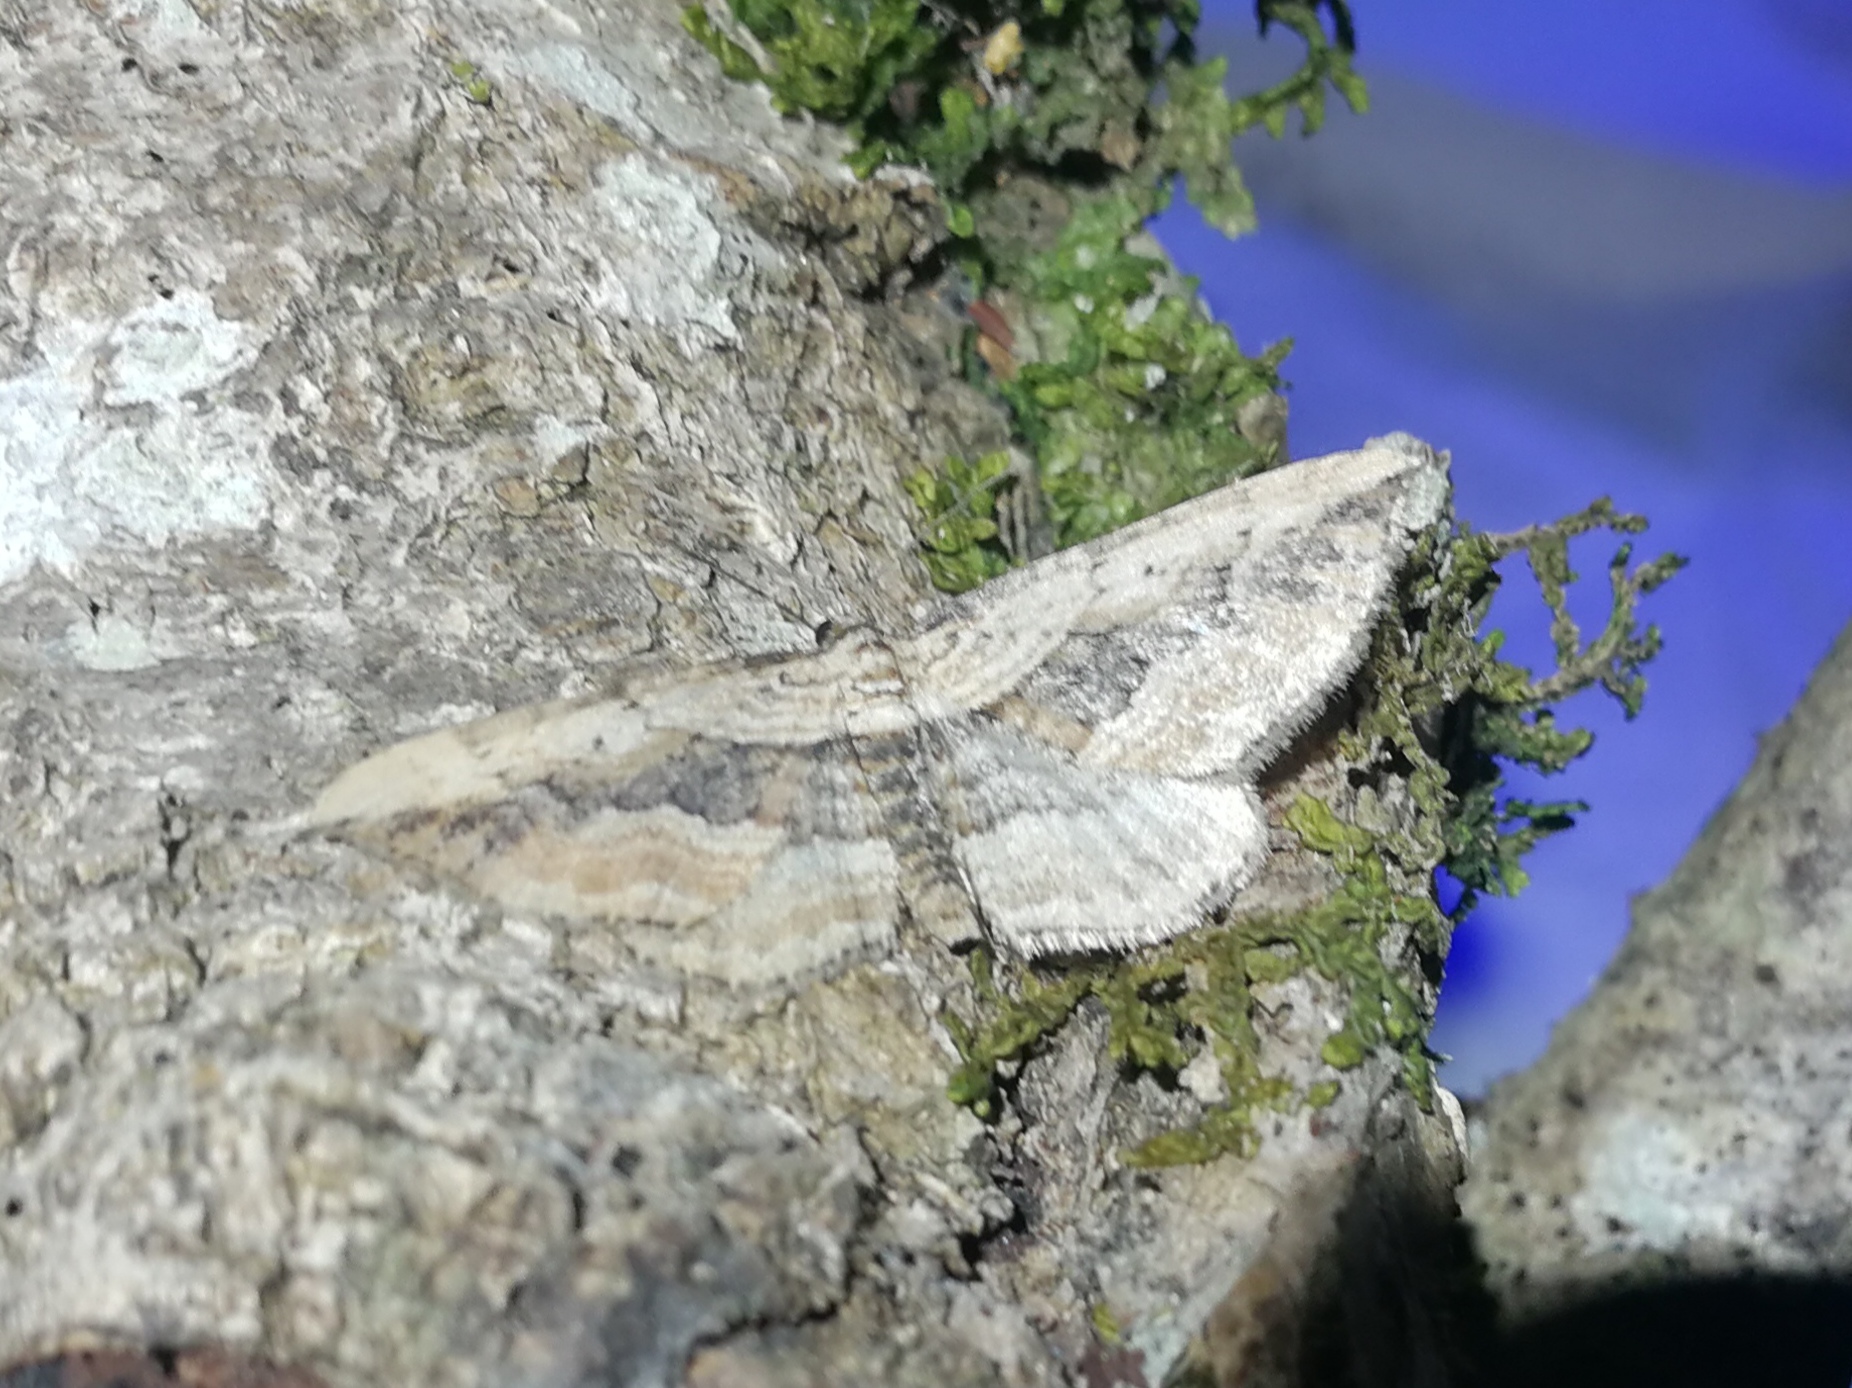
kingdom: Animalia
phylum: Arthropoda
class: Insecta
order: Lepidoptera
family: Geometridae
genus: Horisme
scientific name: Horisme vitalbata
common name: Small waved umber
